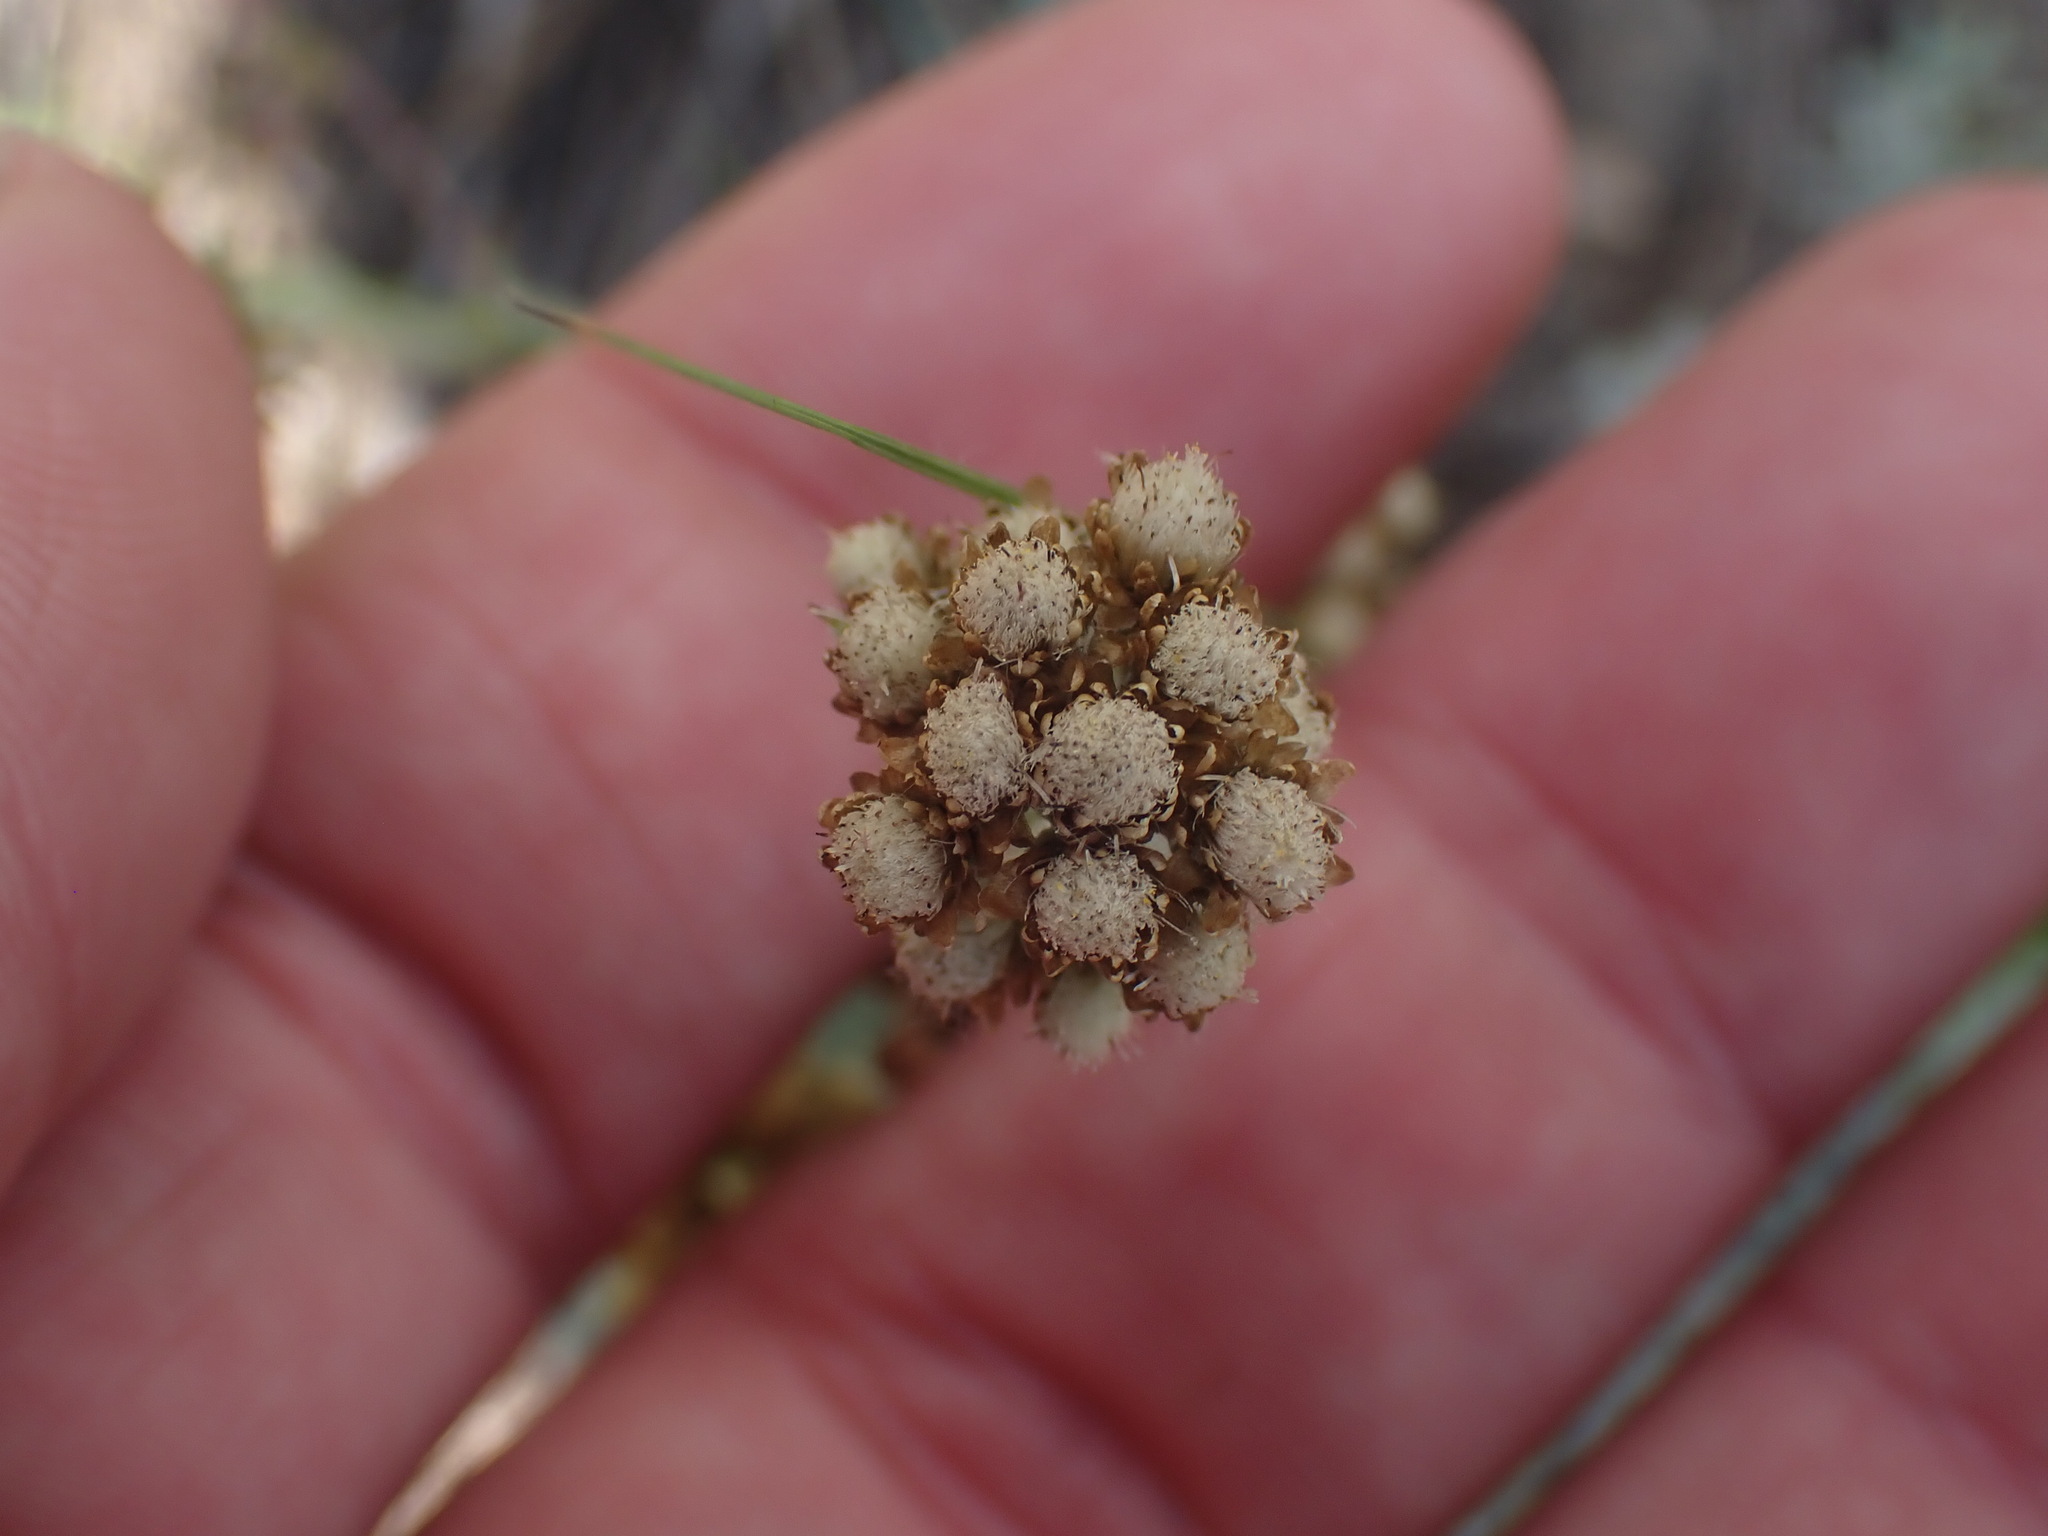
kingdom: Plantae
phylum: Tracheophyta
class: Magnoliopsida
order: Asterales
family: Asteraceae
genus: Antennaria
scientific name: Antennaria umbrinella
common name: Brown pussytoes
